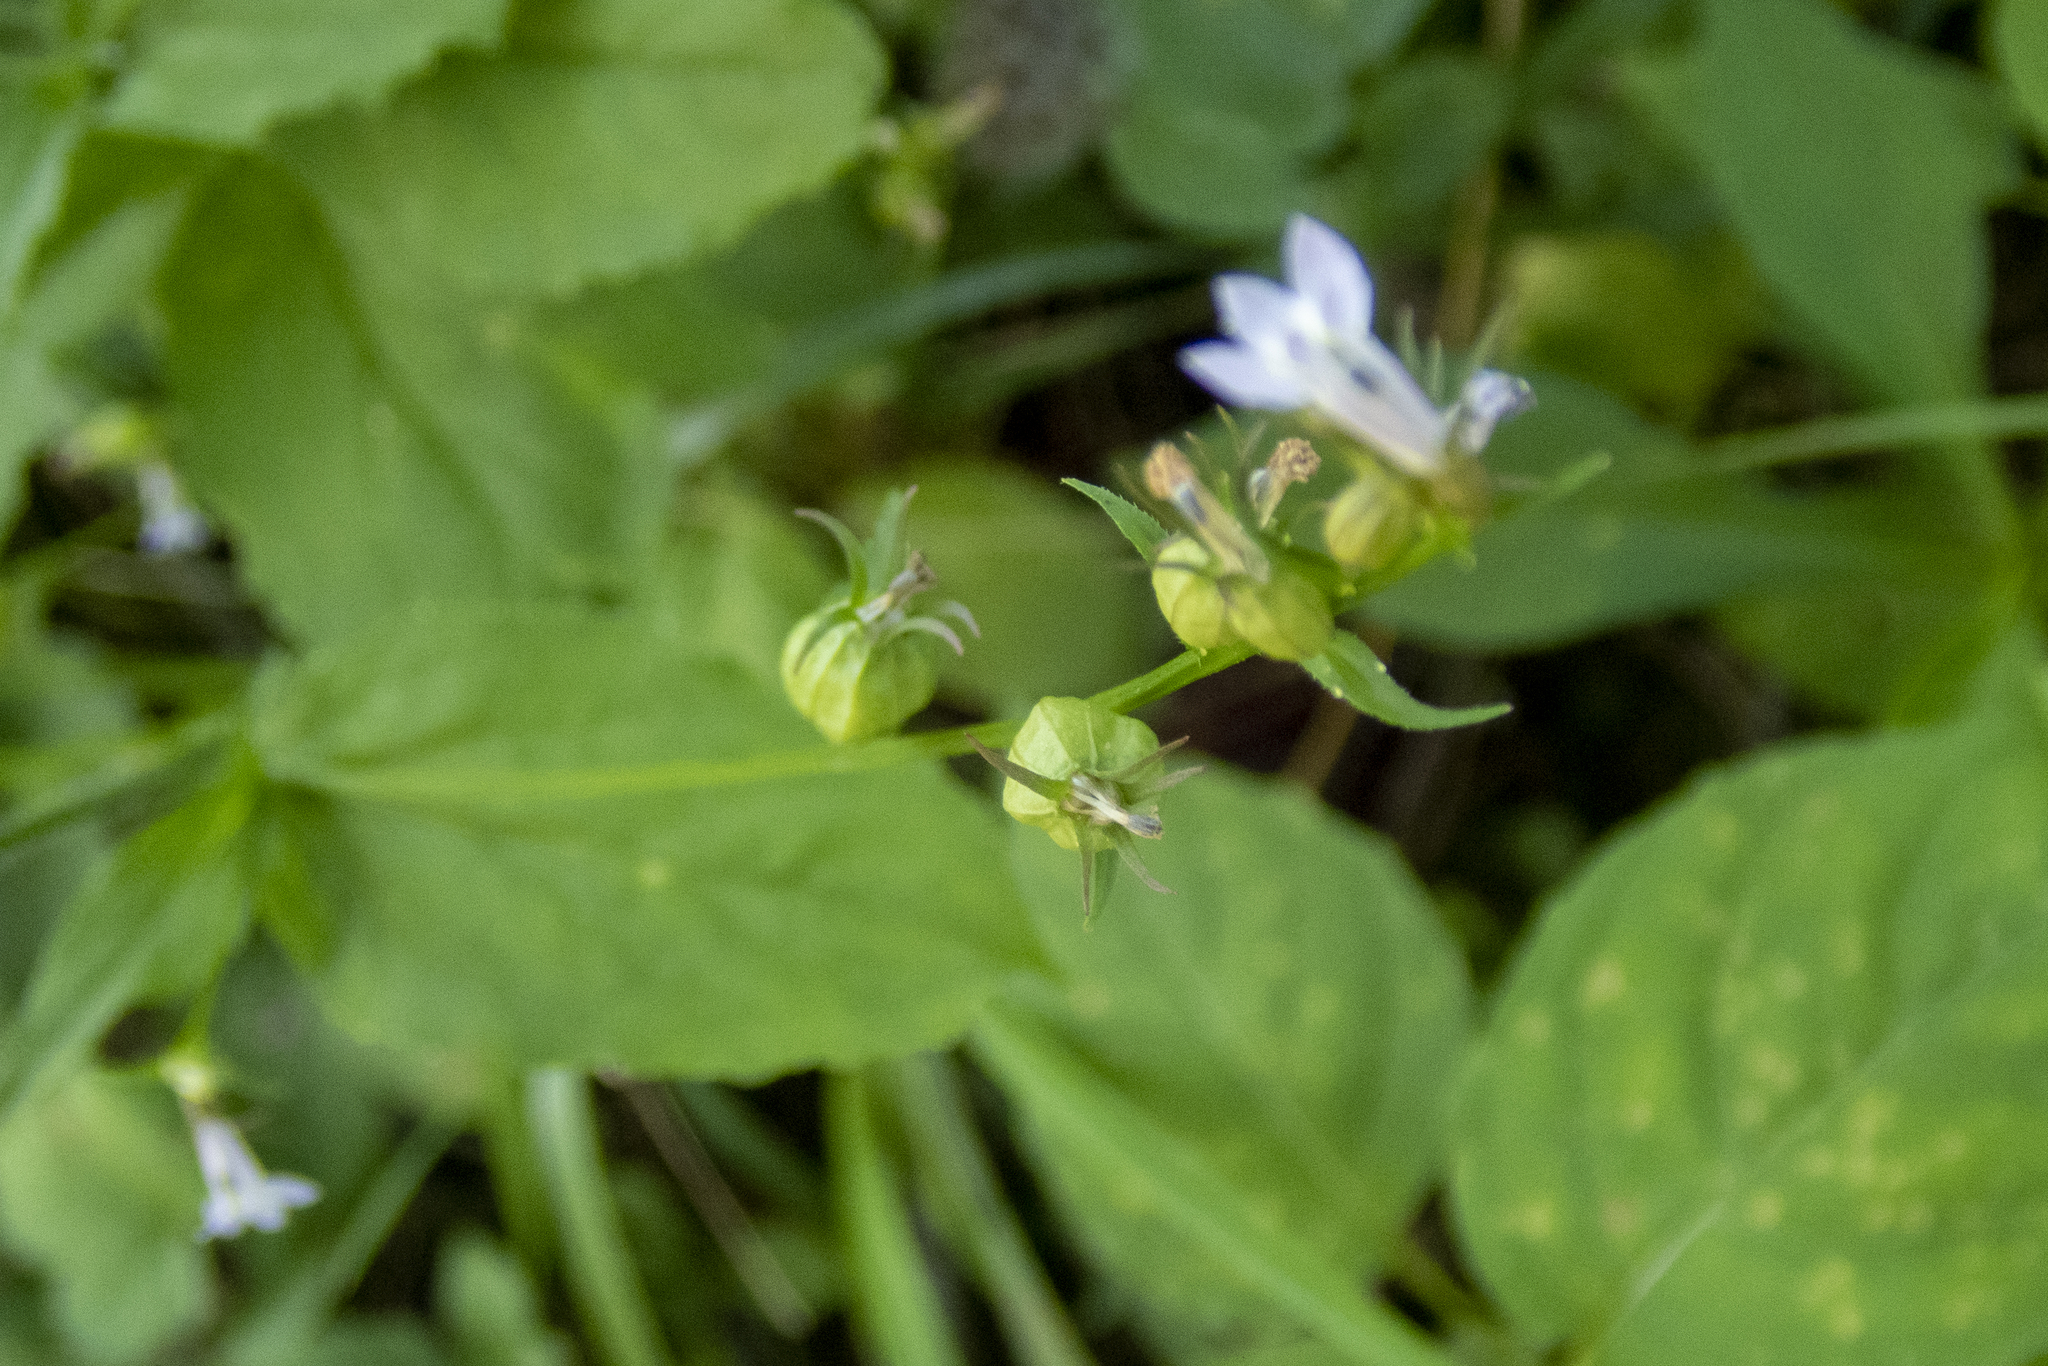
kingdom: Plantae
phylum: Tracheophyta
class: Magnoliopsida
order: Asterales
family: Campanulaceae
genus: Lobelia
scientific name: Lobelia inflata
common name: Indian tobacco
